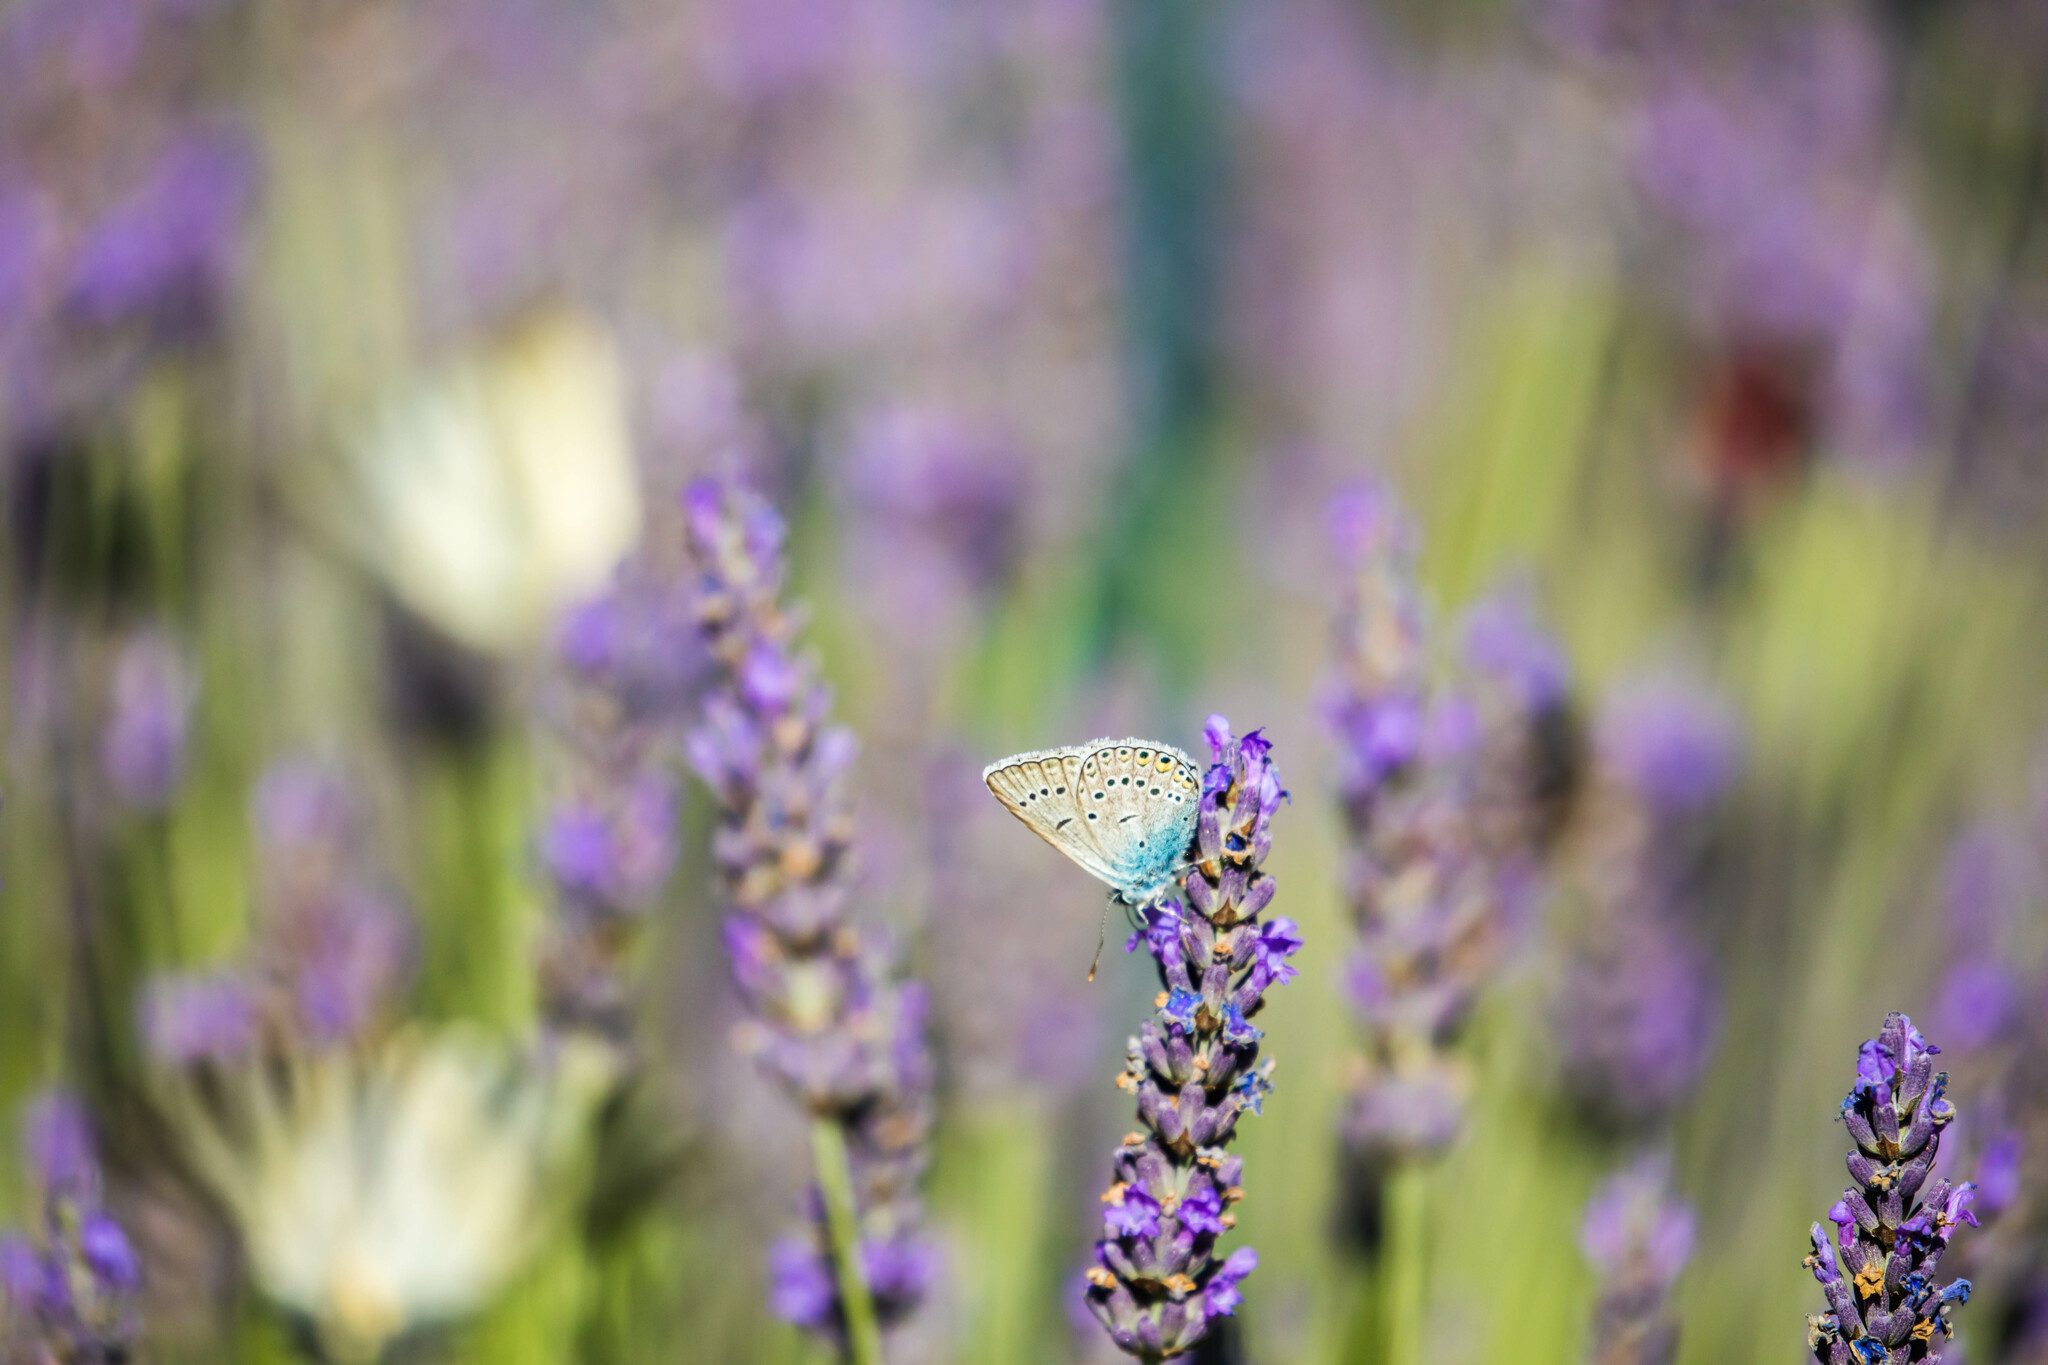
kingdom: Animalia
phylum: Arthropoda
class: Insecta
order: Lepidoptera
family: Lycaenidae
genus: Plebejus
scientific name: Plebejus amanda
